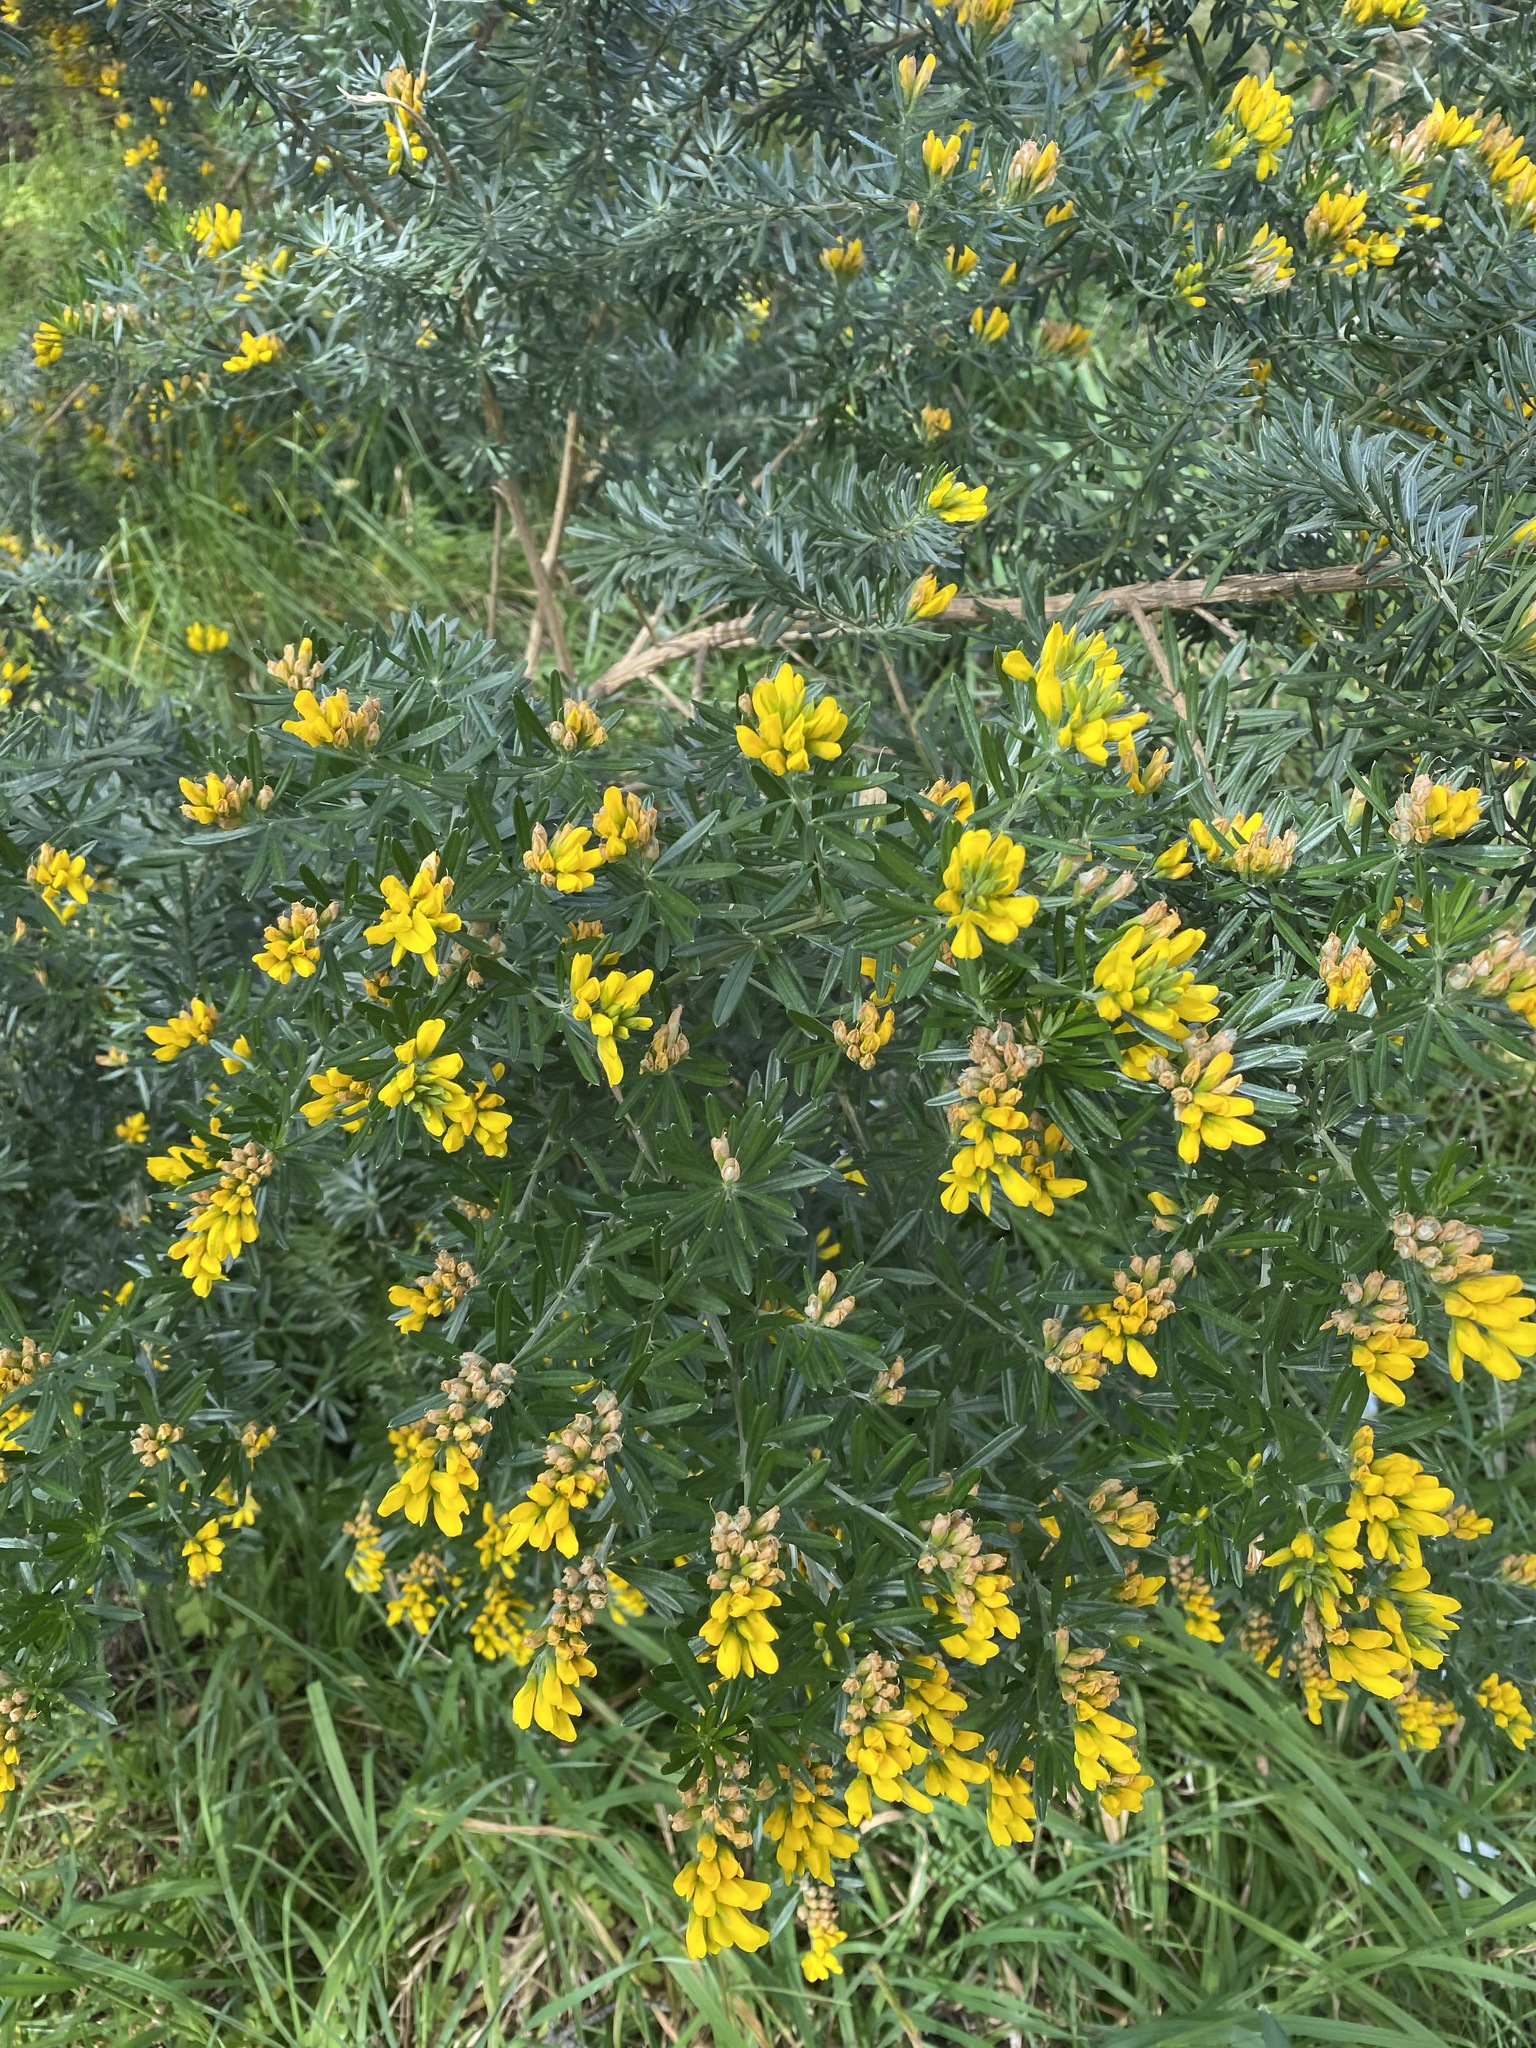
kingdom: Plantae
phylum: Tracheophyta
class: Magnoliopsida
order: Fabales
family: Fabaceae
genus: Genista
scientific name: Genista linifolia
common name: Mediterranean broom
